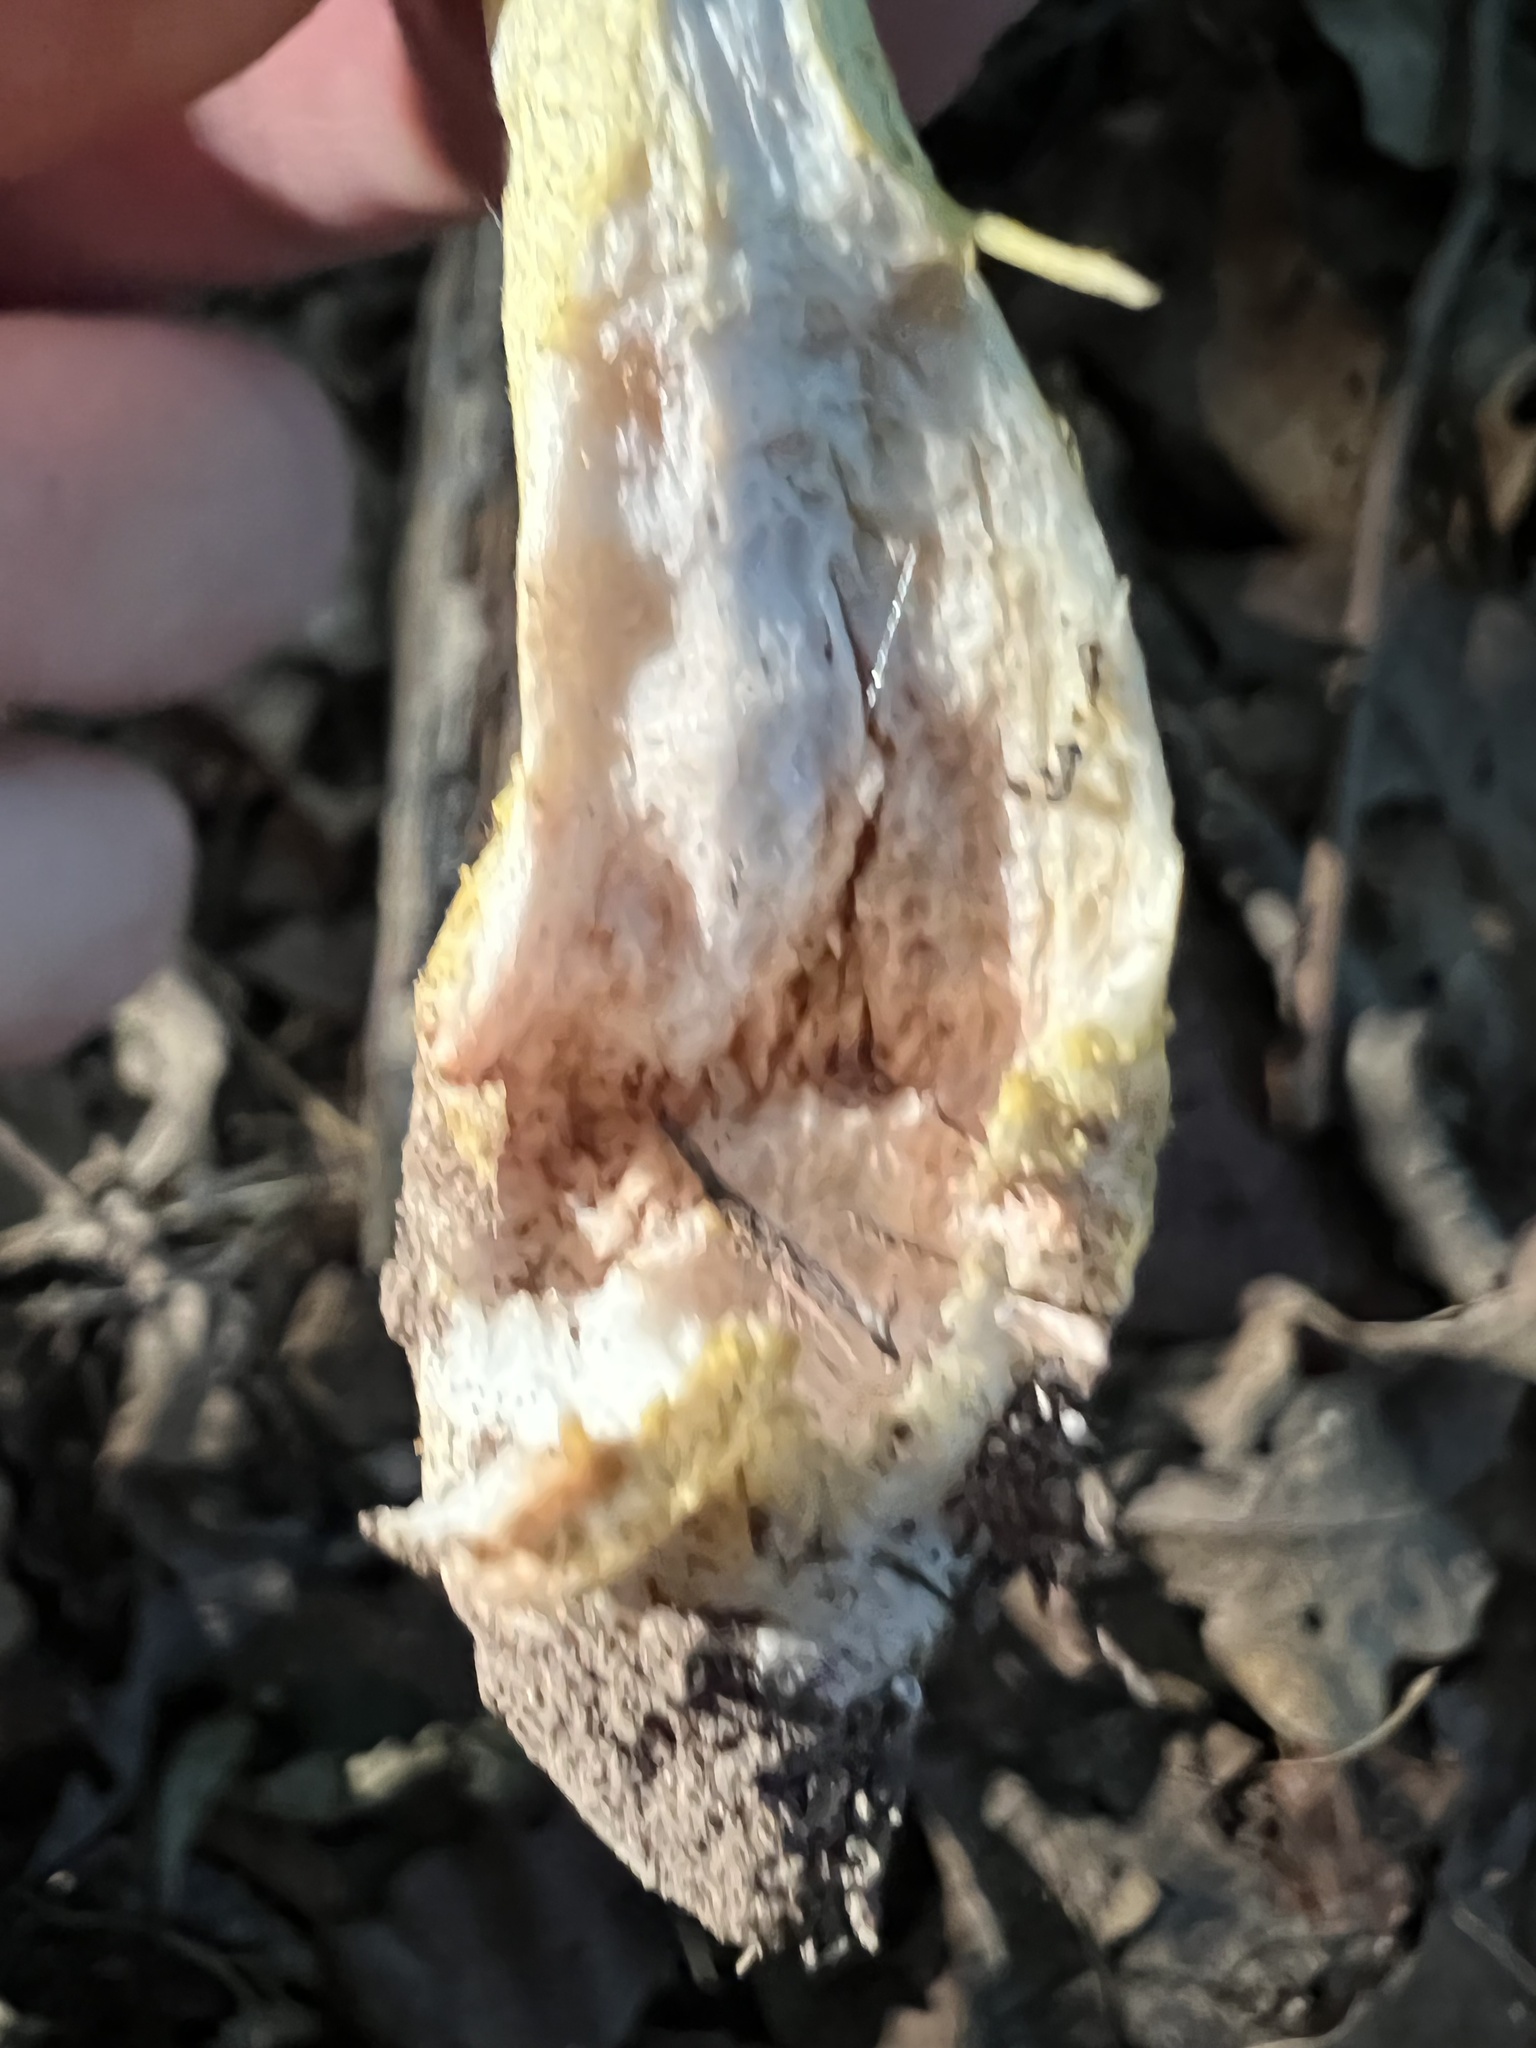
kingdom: Fungi
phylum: Basidiomycota
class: Agaricomycetes
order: Agaricales
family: Amanitaceae
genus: Amanita
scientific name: Amanita flavorubens
